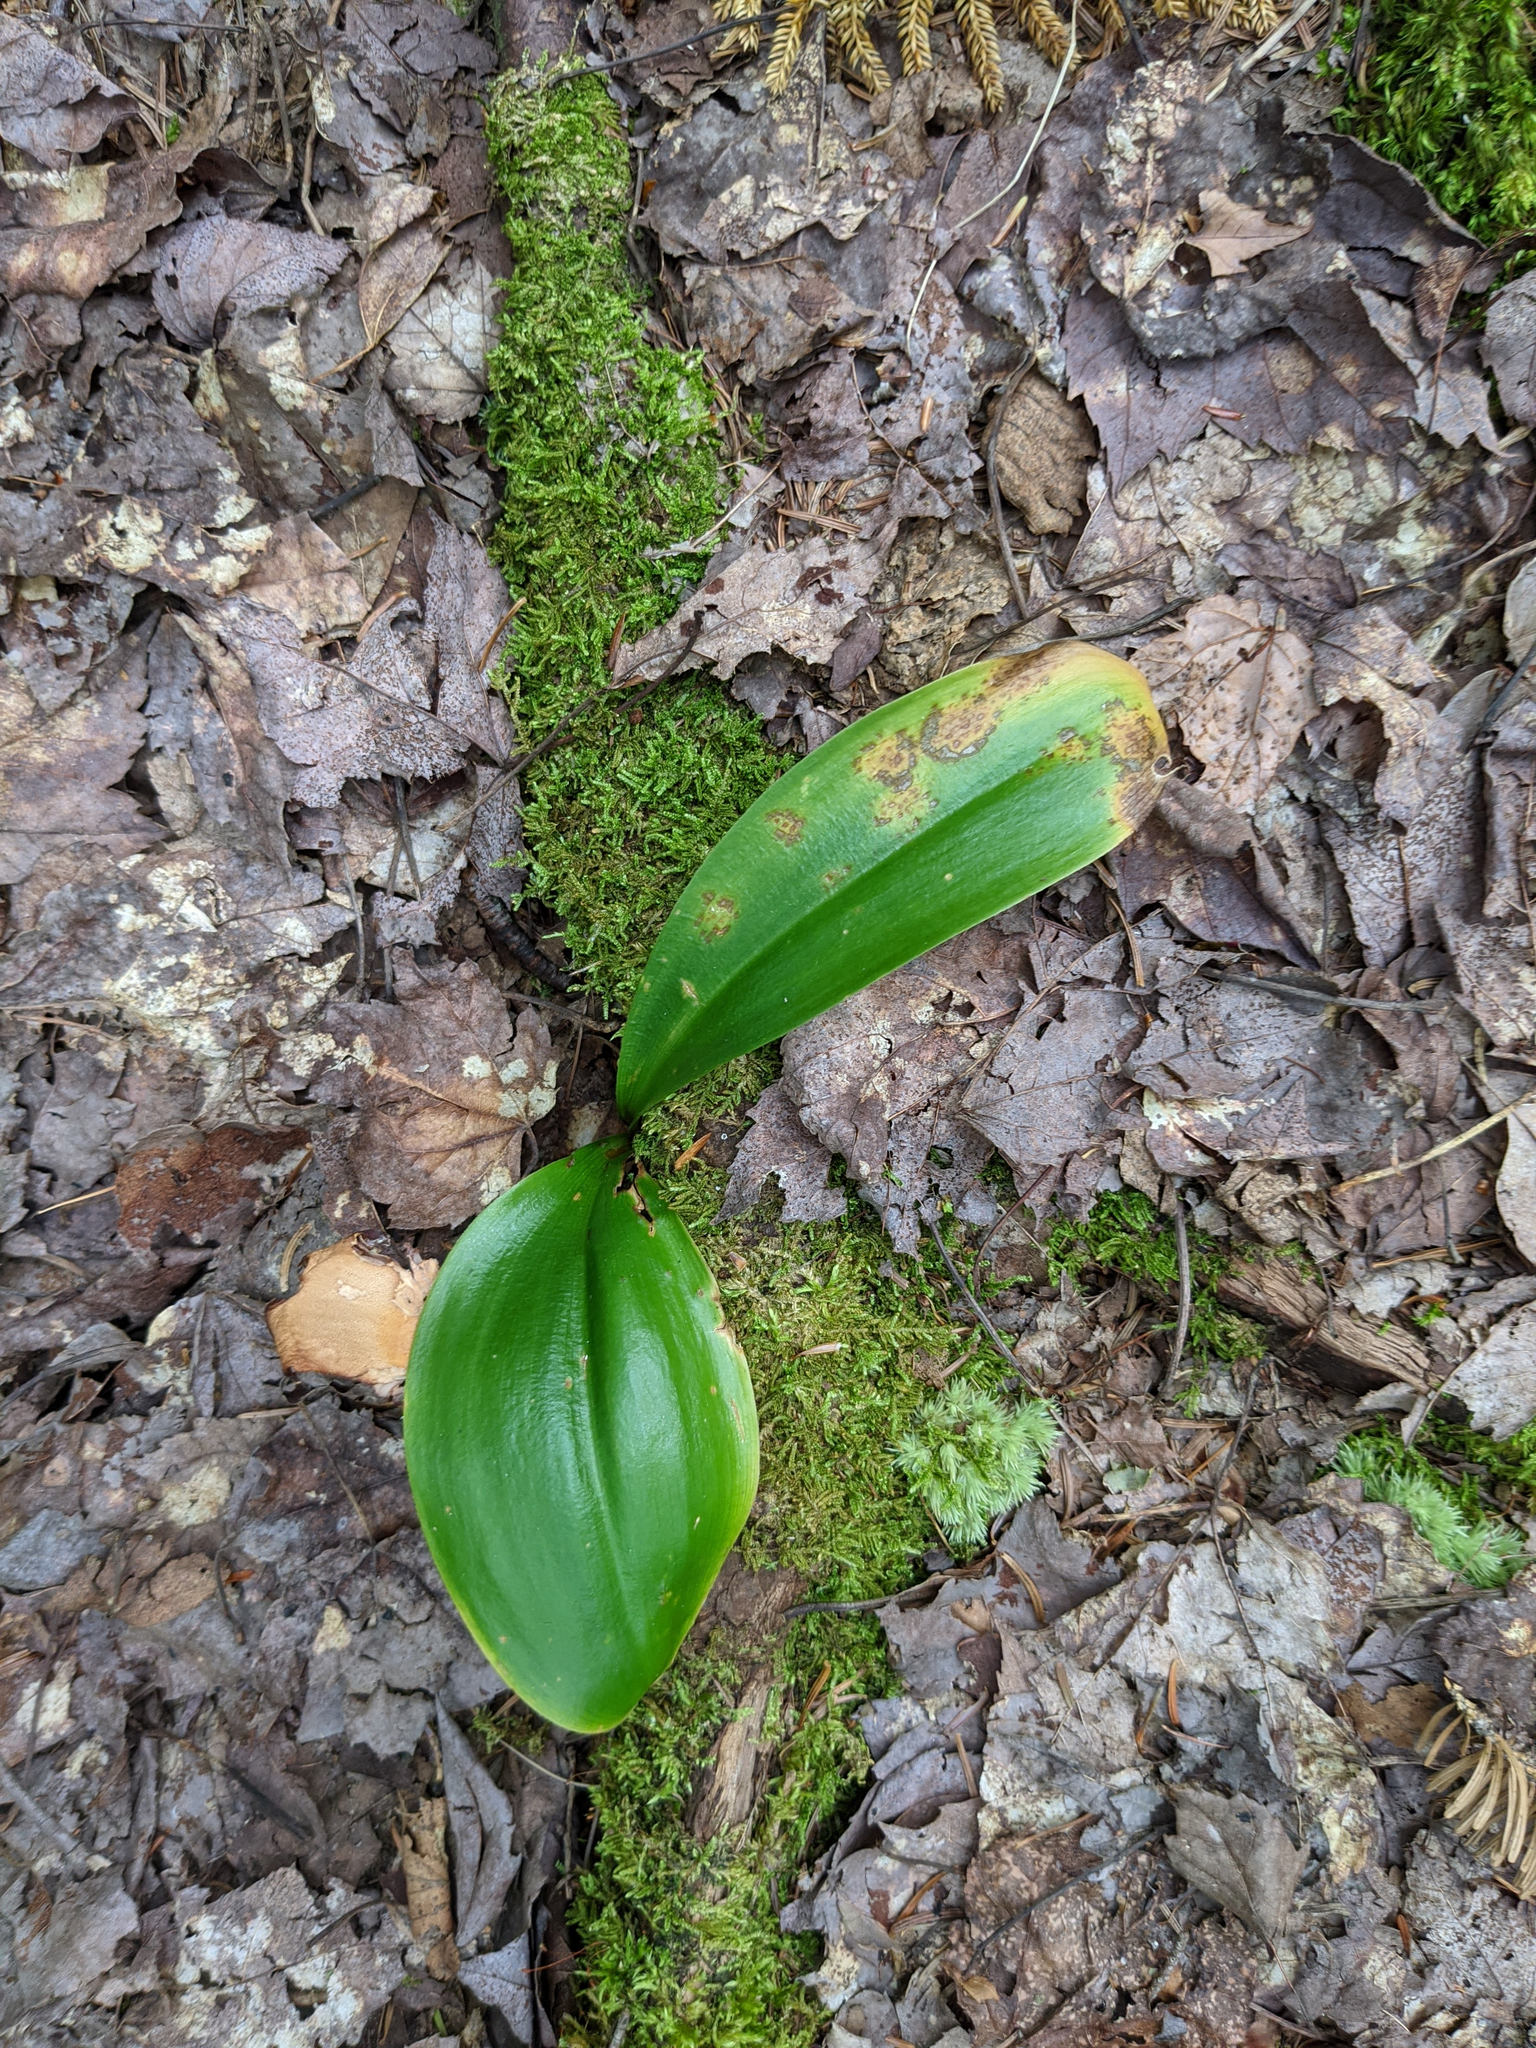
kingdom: Plantae
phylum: Tracheophyta
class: Liliopsida
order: Liliales
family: Liliaceae
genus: Clintonia
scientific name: Clintonia borealis
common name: Yellow clintonia
